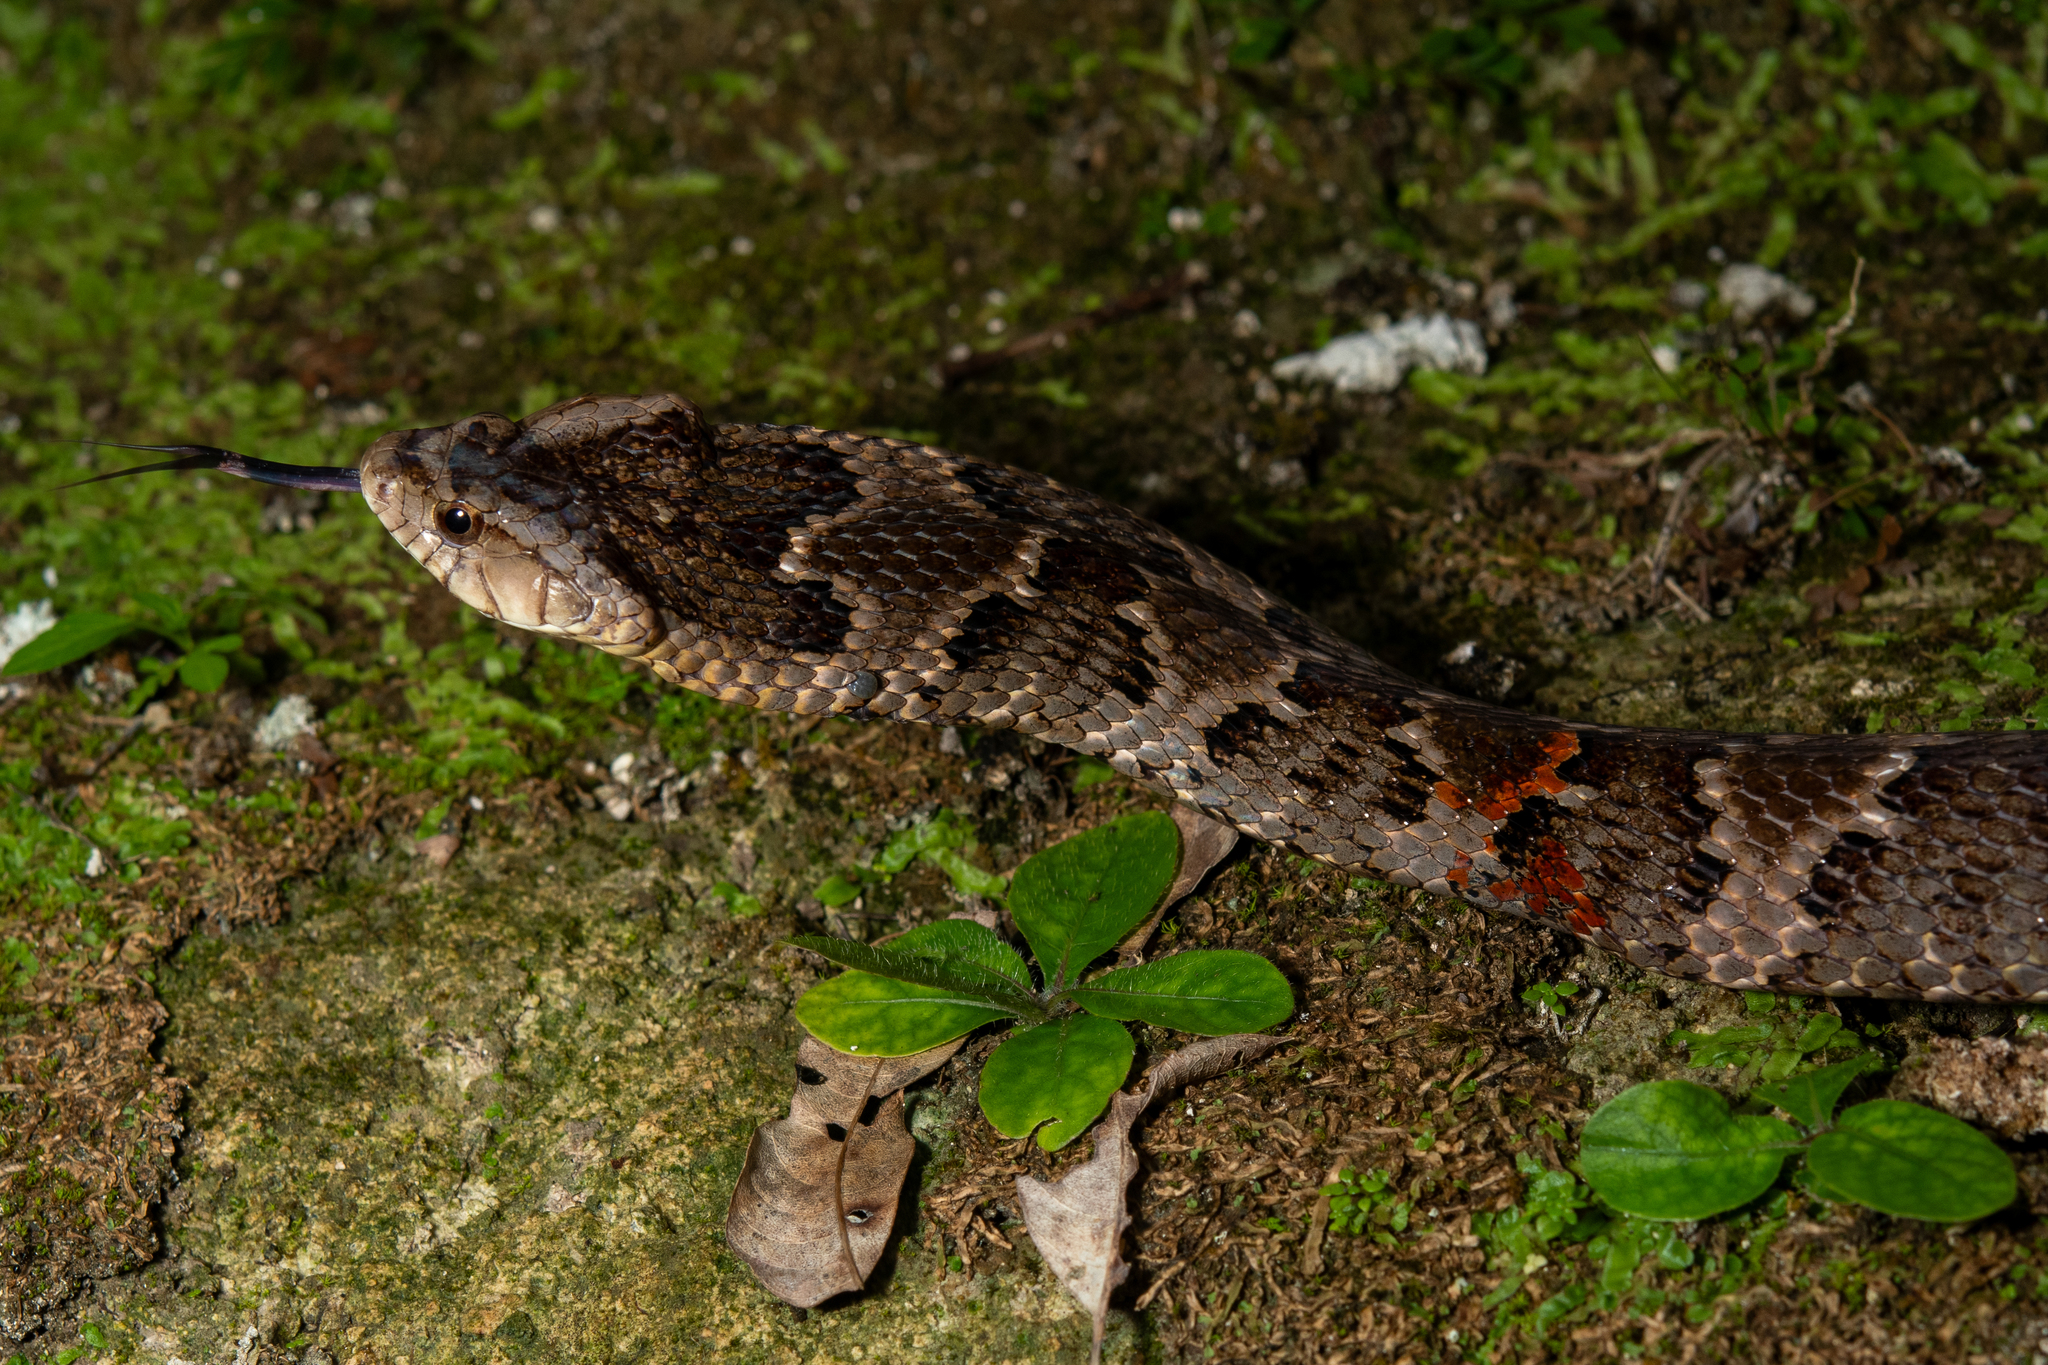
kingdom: Animalia
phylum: Chordata
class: Squamata
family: Colubridae
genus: Xenodon
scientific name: Xenodon rabdocephalus
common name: False fer-de-lance
